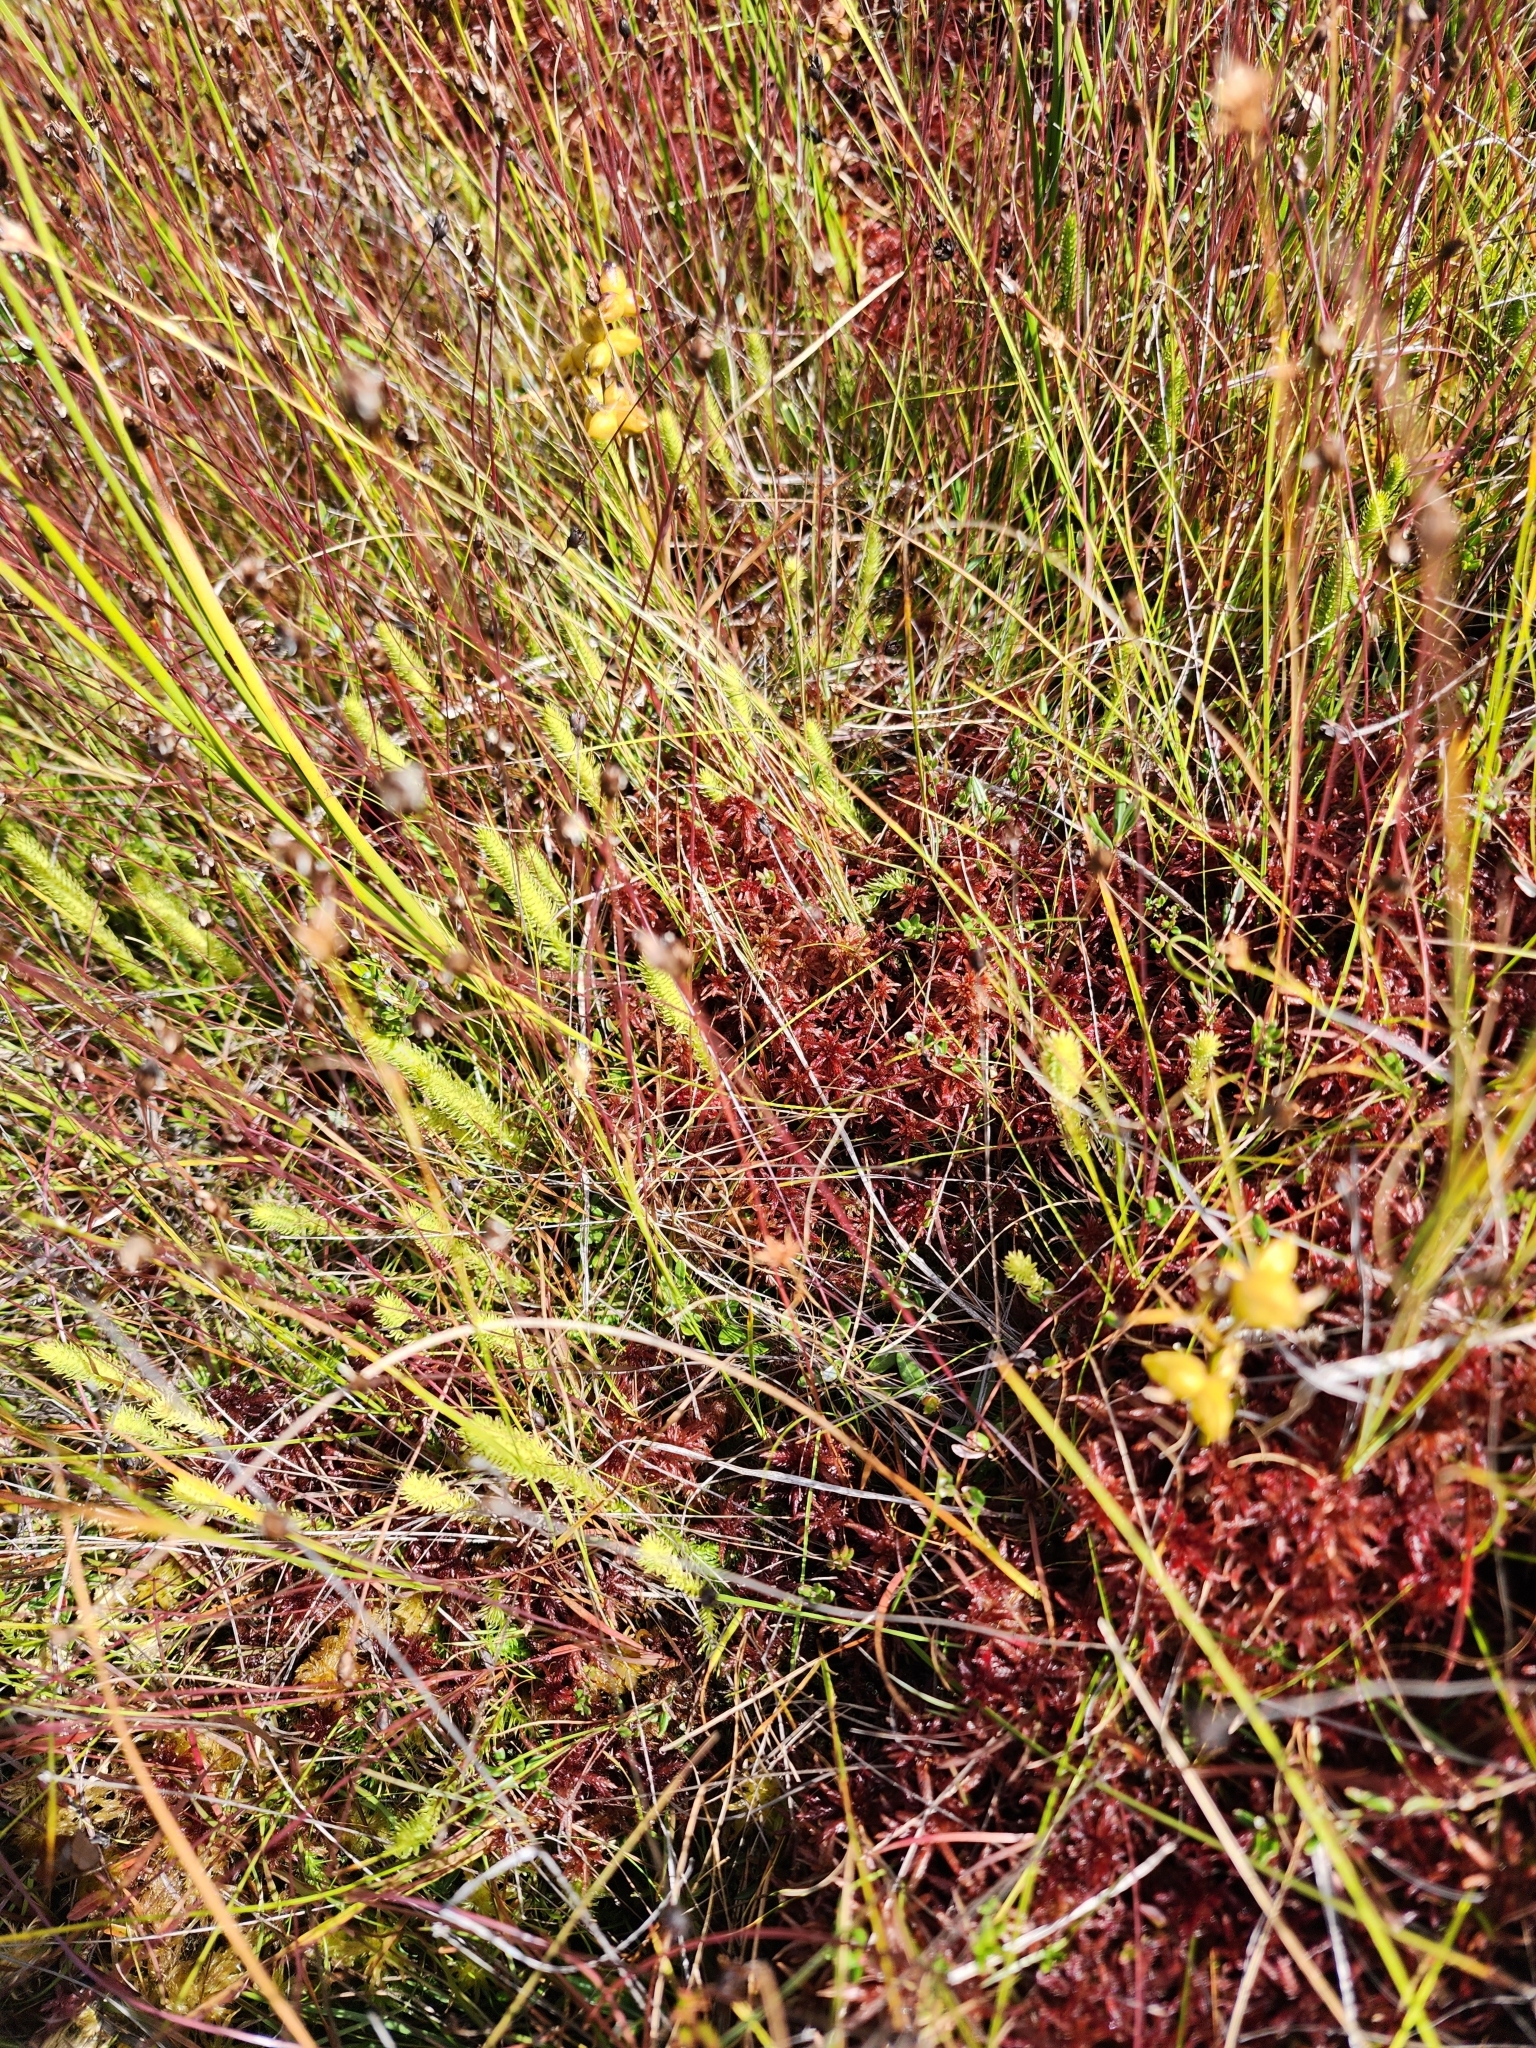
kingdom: Plantae
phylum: Tracheophyta
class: Lycopodiopsida
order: Lycopodiales
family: Lycopodiaceae
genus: Lycopodiella
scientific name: Lycopodiella inundata
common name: Marsh clubmoss
